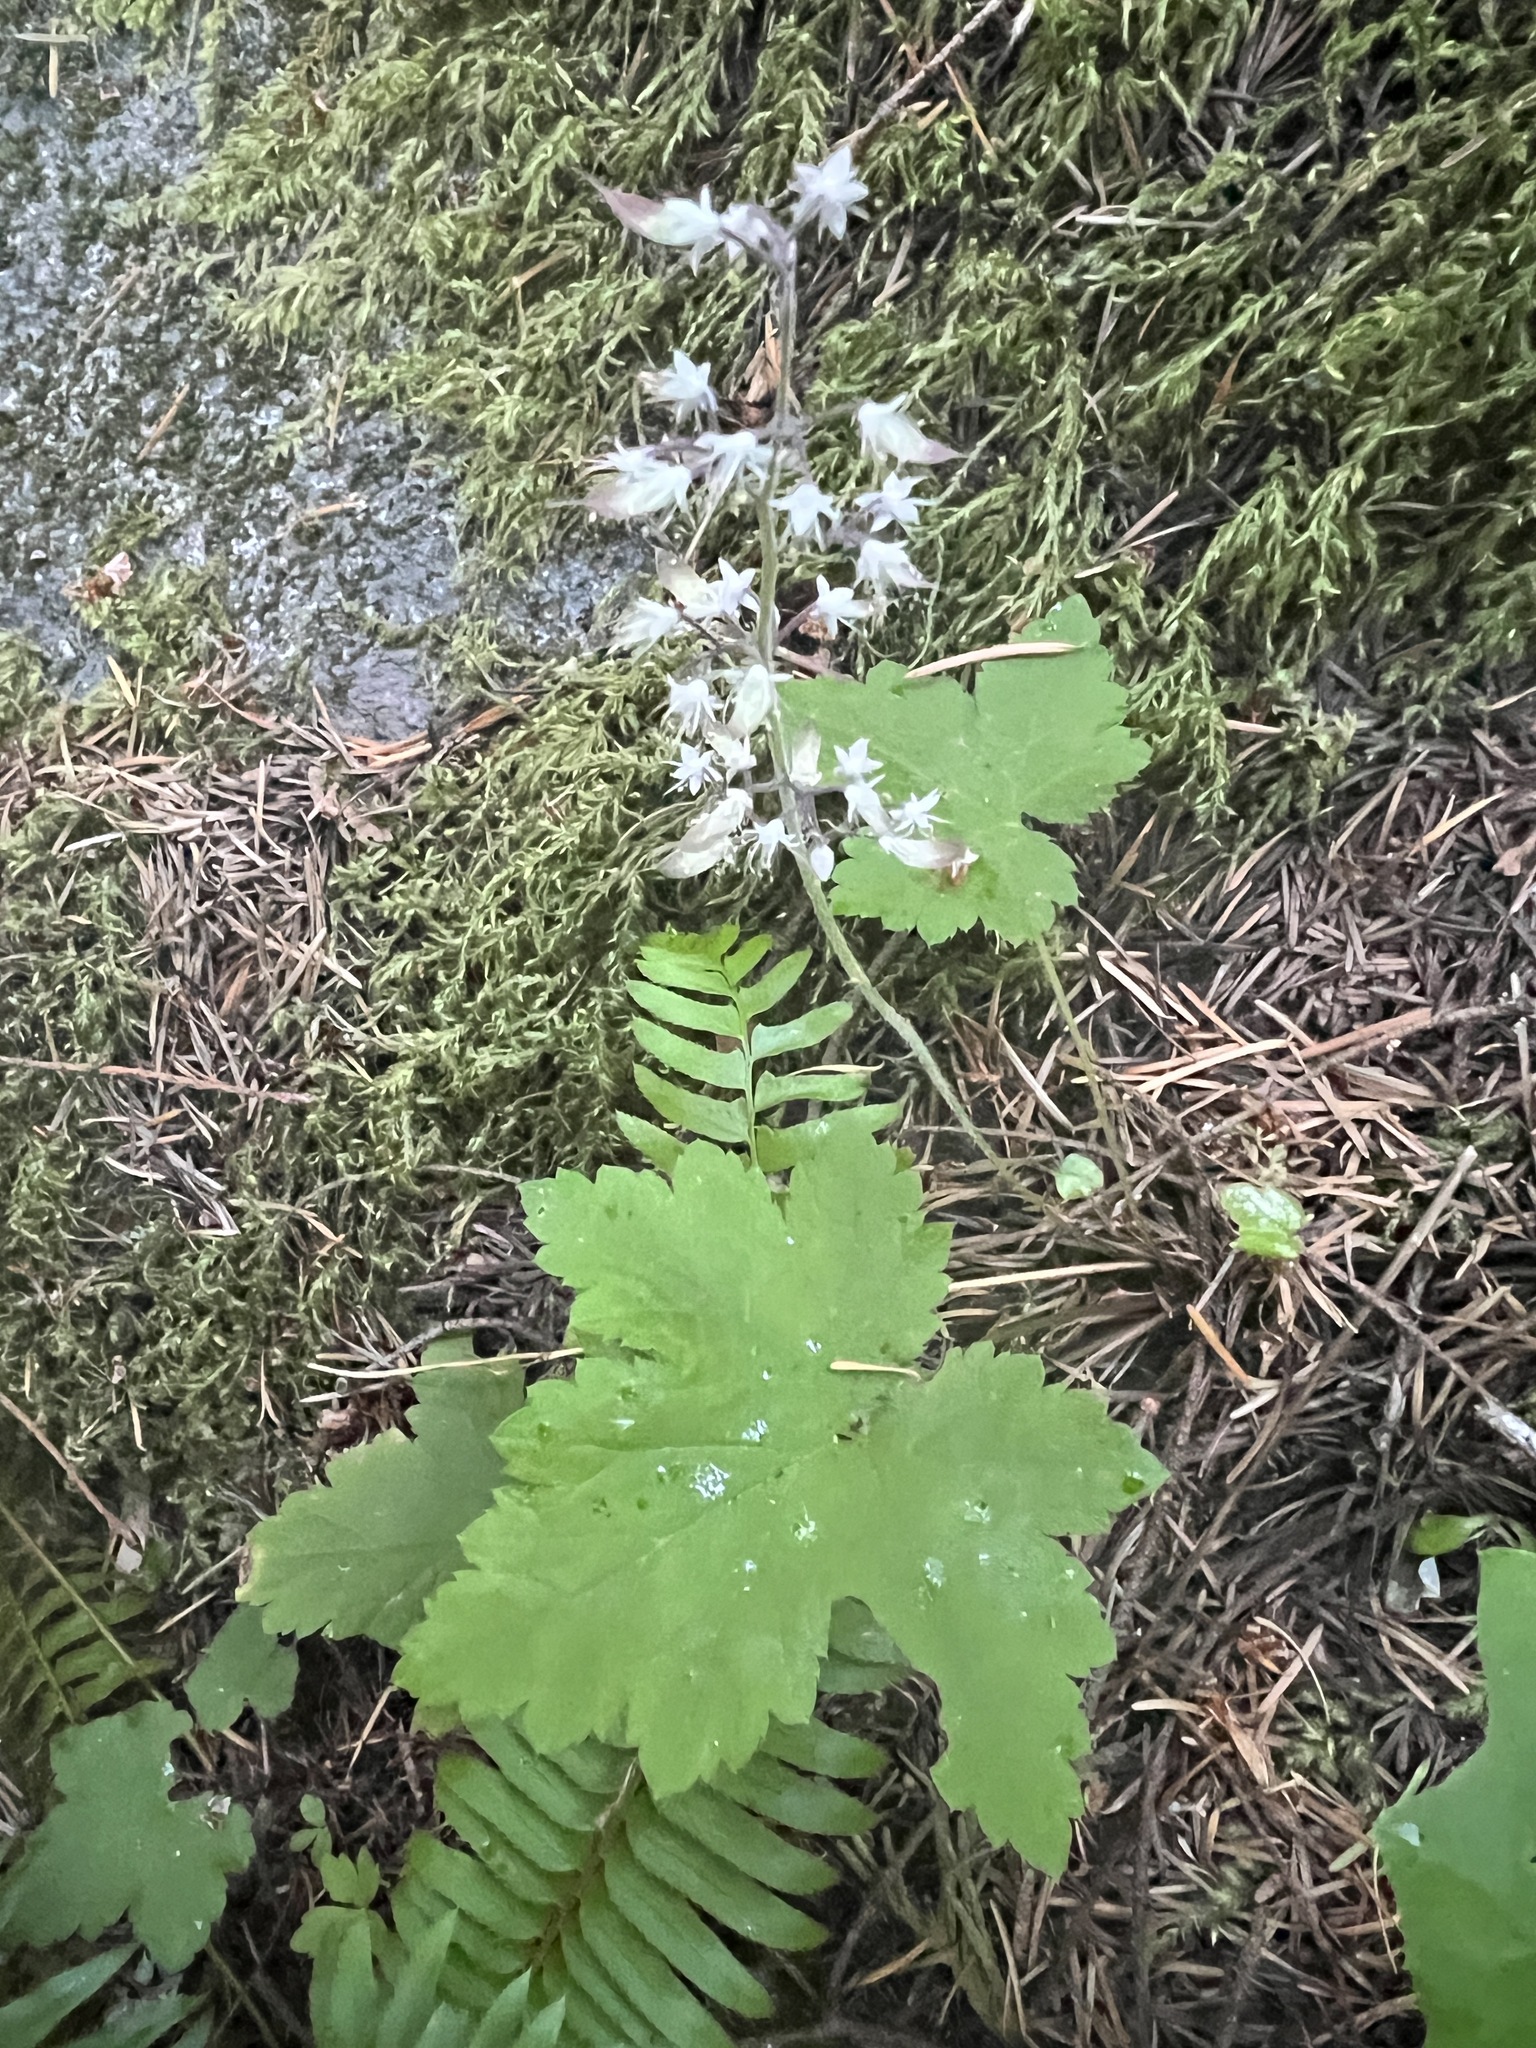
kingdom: Plantae
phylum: Tracheophyta
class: Magnoliopsida
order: Saxifragales
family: Saxifragaceae
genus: Tiarella
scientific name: Tiarella trifoliata
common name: Sugar-scoop
